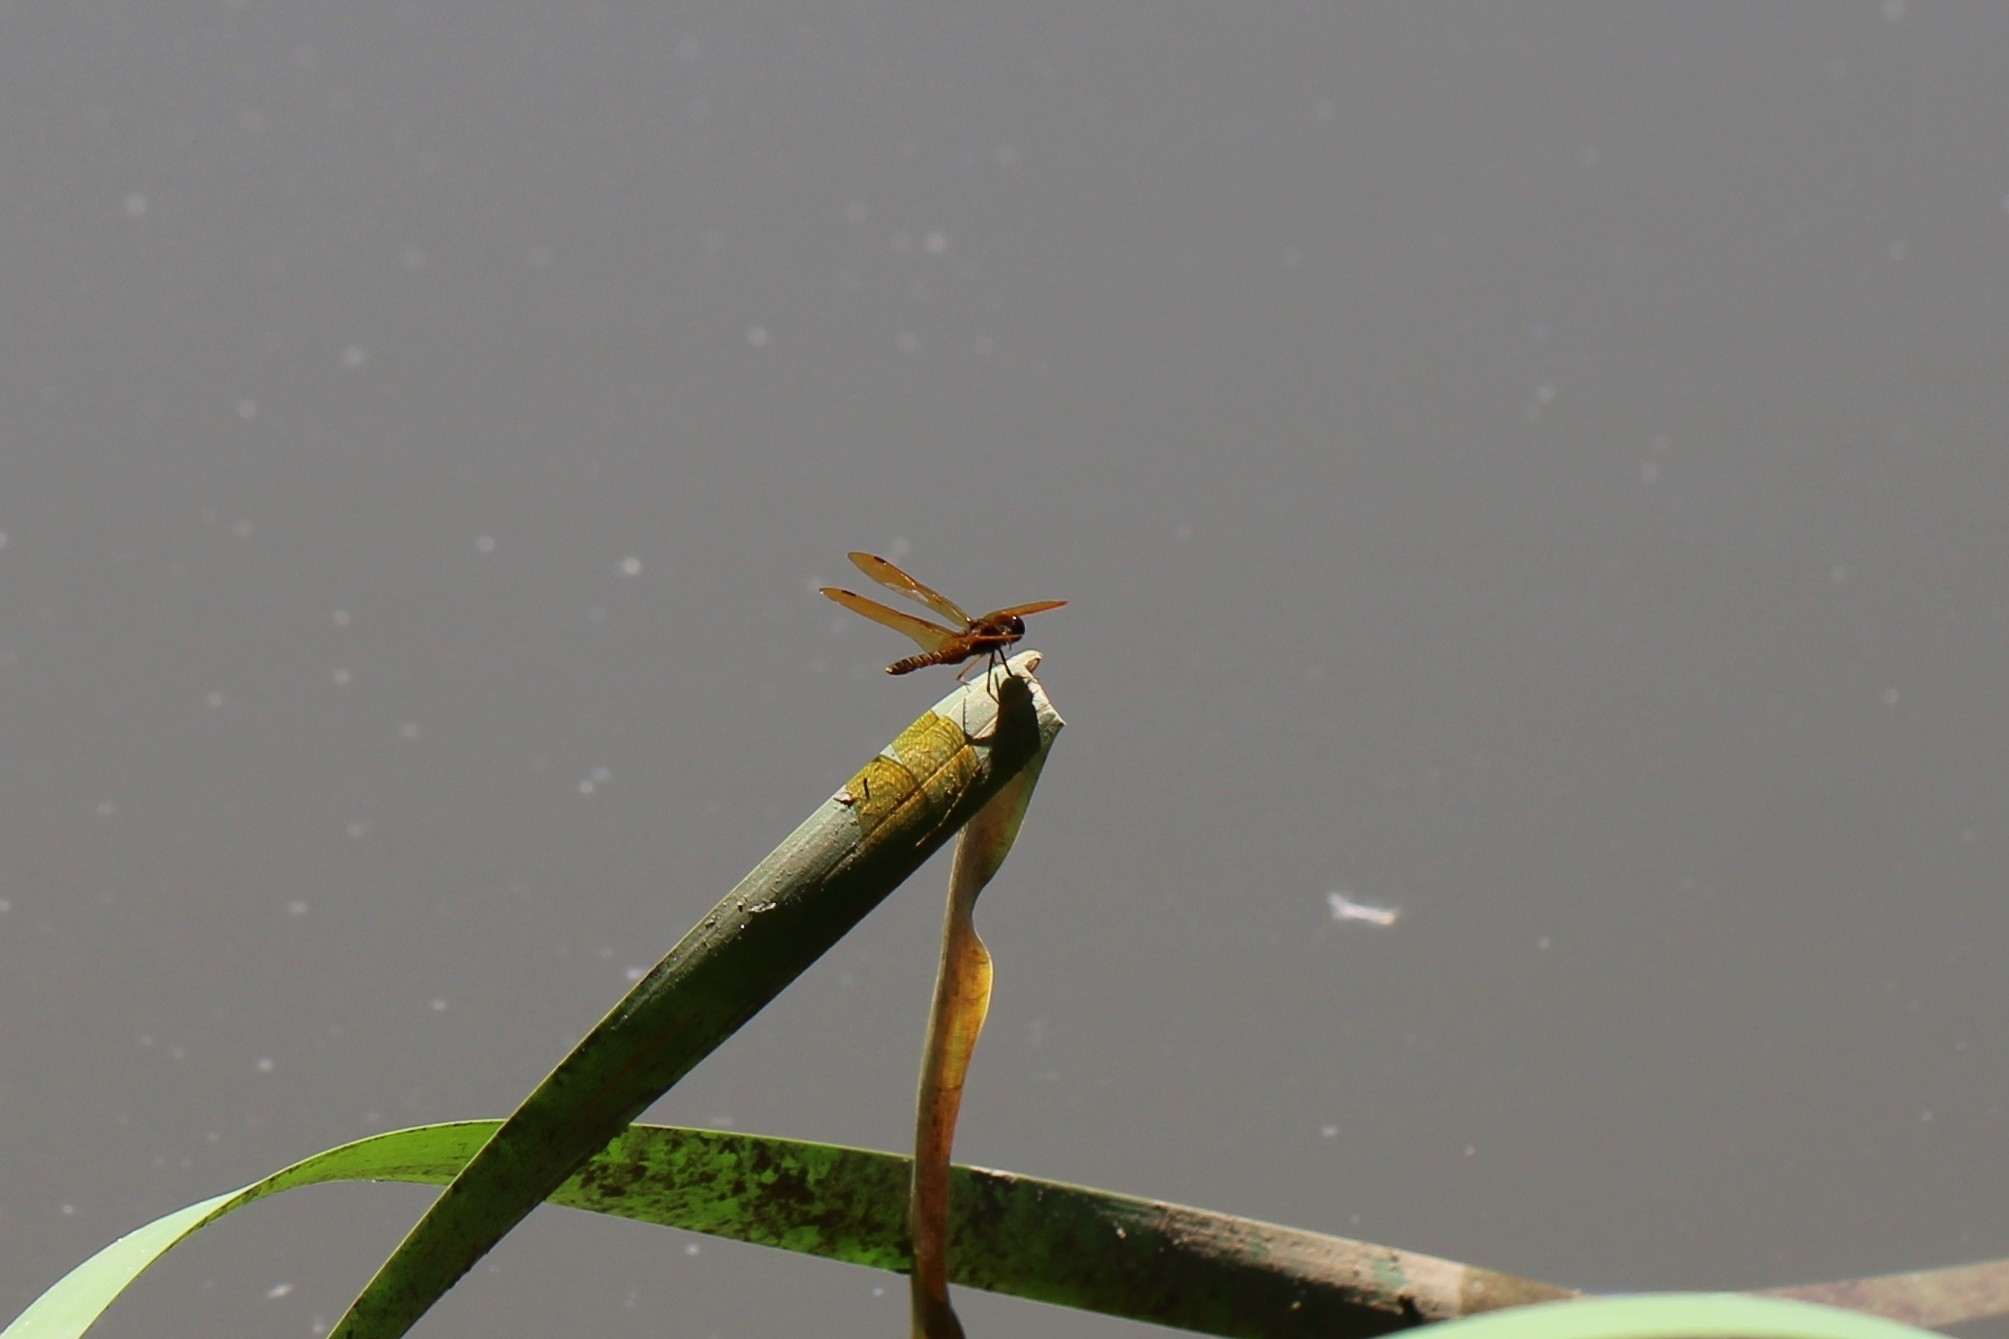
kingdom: Animalia
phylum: Arthropoda
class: Insecta
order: Odonata
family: Libellulidae
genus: Perithemis
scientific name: Perithemis tenera
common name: Eastern amberwing
